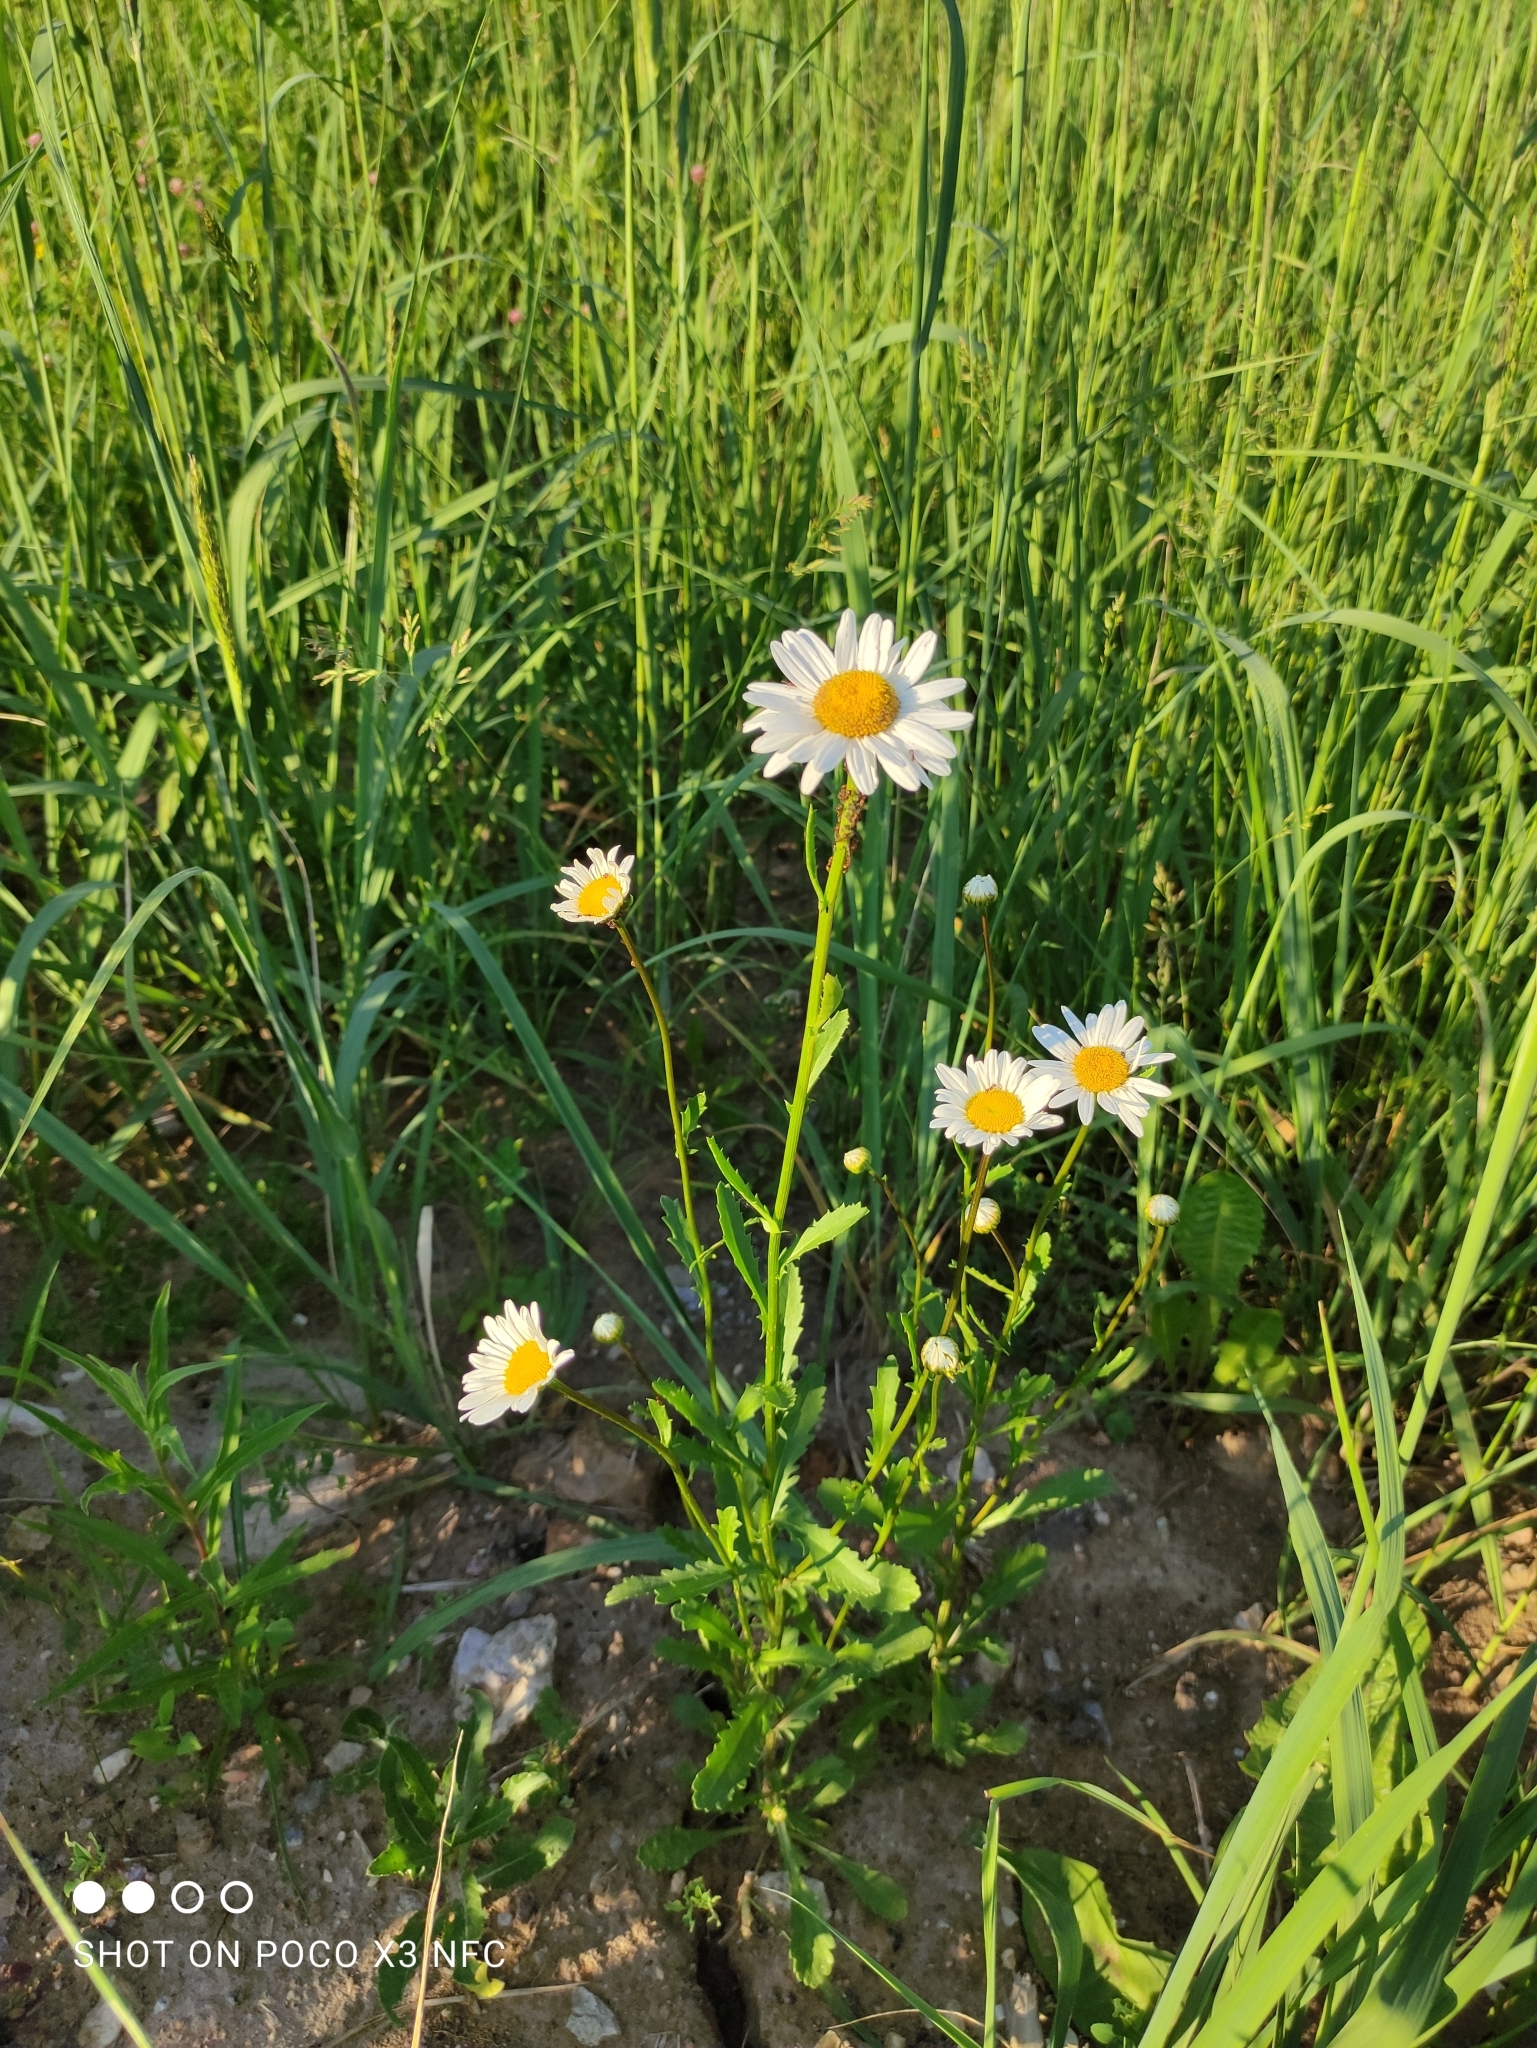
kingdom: Plantae
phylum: Tracheophyta
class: Magnoliopsida
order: Asterales
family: Asteraceae
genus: Leucanthemum
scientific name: Leucanthemum vulgare
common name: Oxeye daisy
